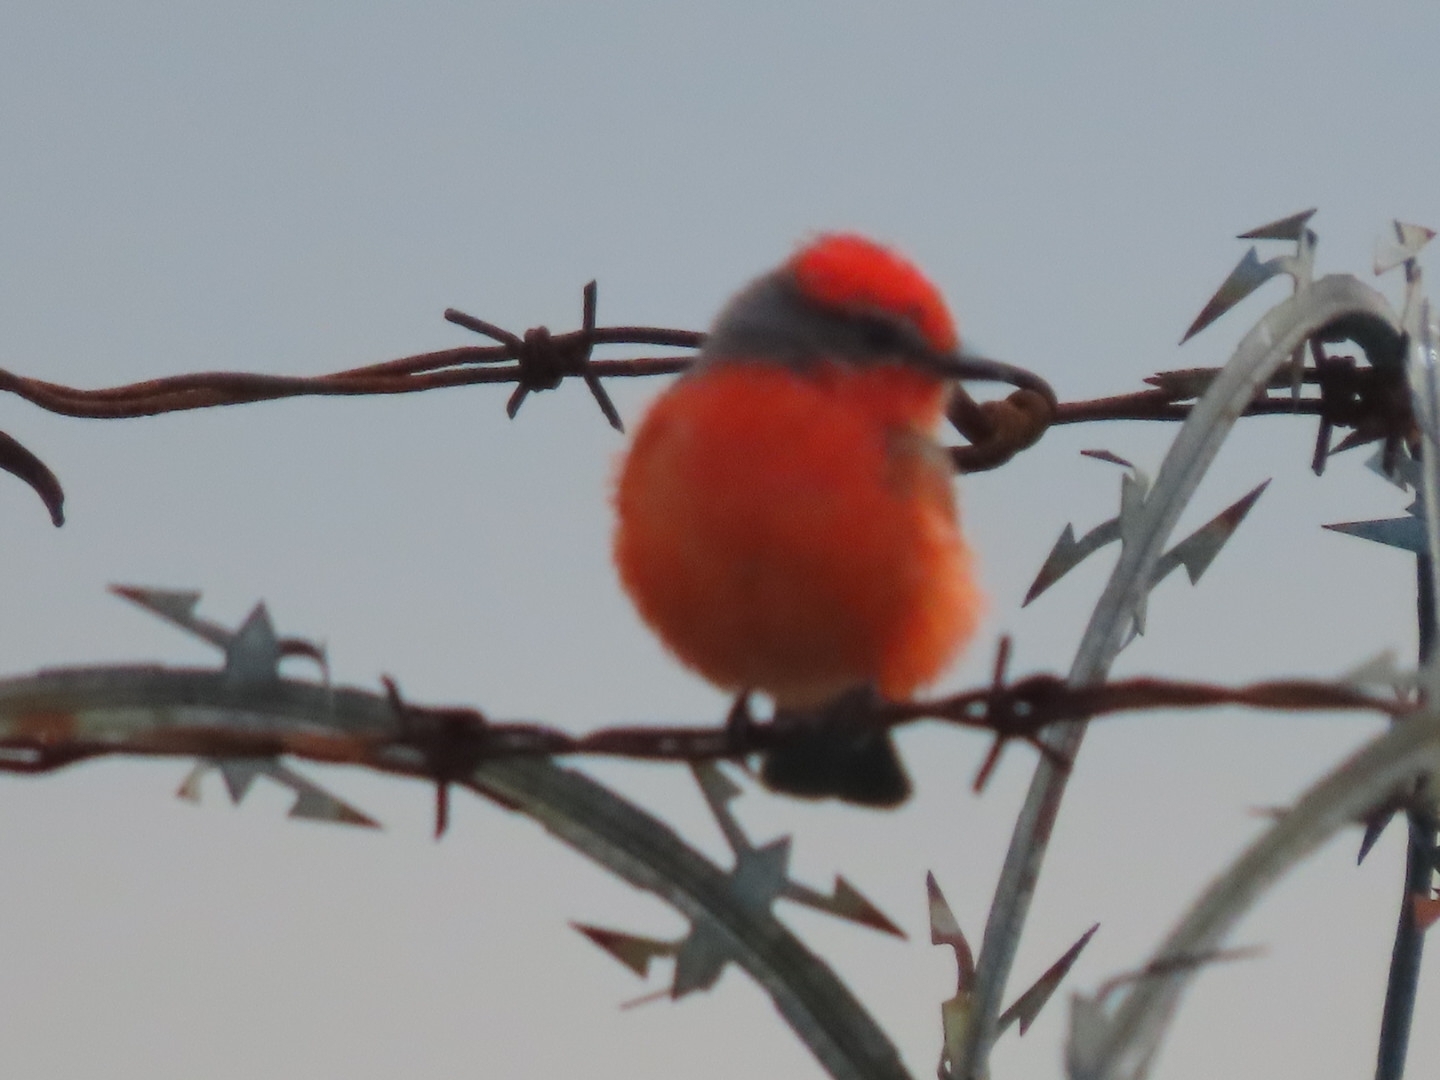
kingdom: Animalia
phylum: Chordata
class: Aves
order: Passeriformes
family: Tyrannidae
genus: Pyrocephalus
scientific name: Pyrocephalus rubinus
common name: Vermilion flycatcher
